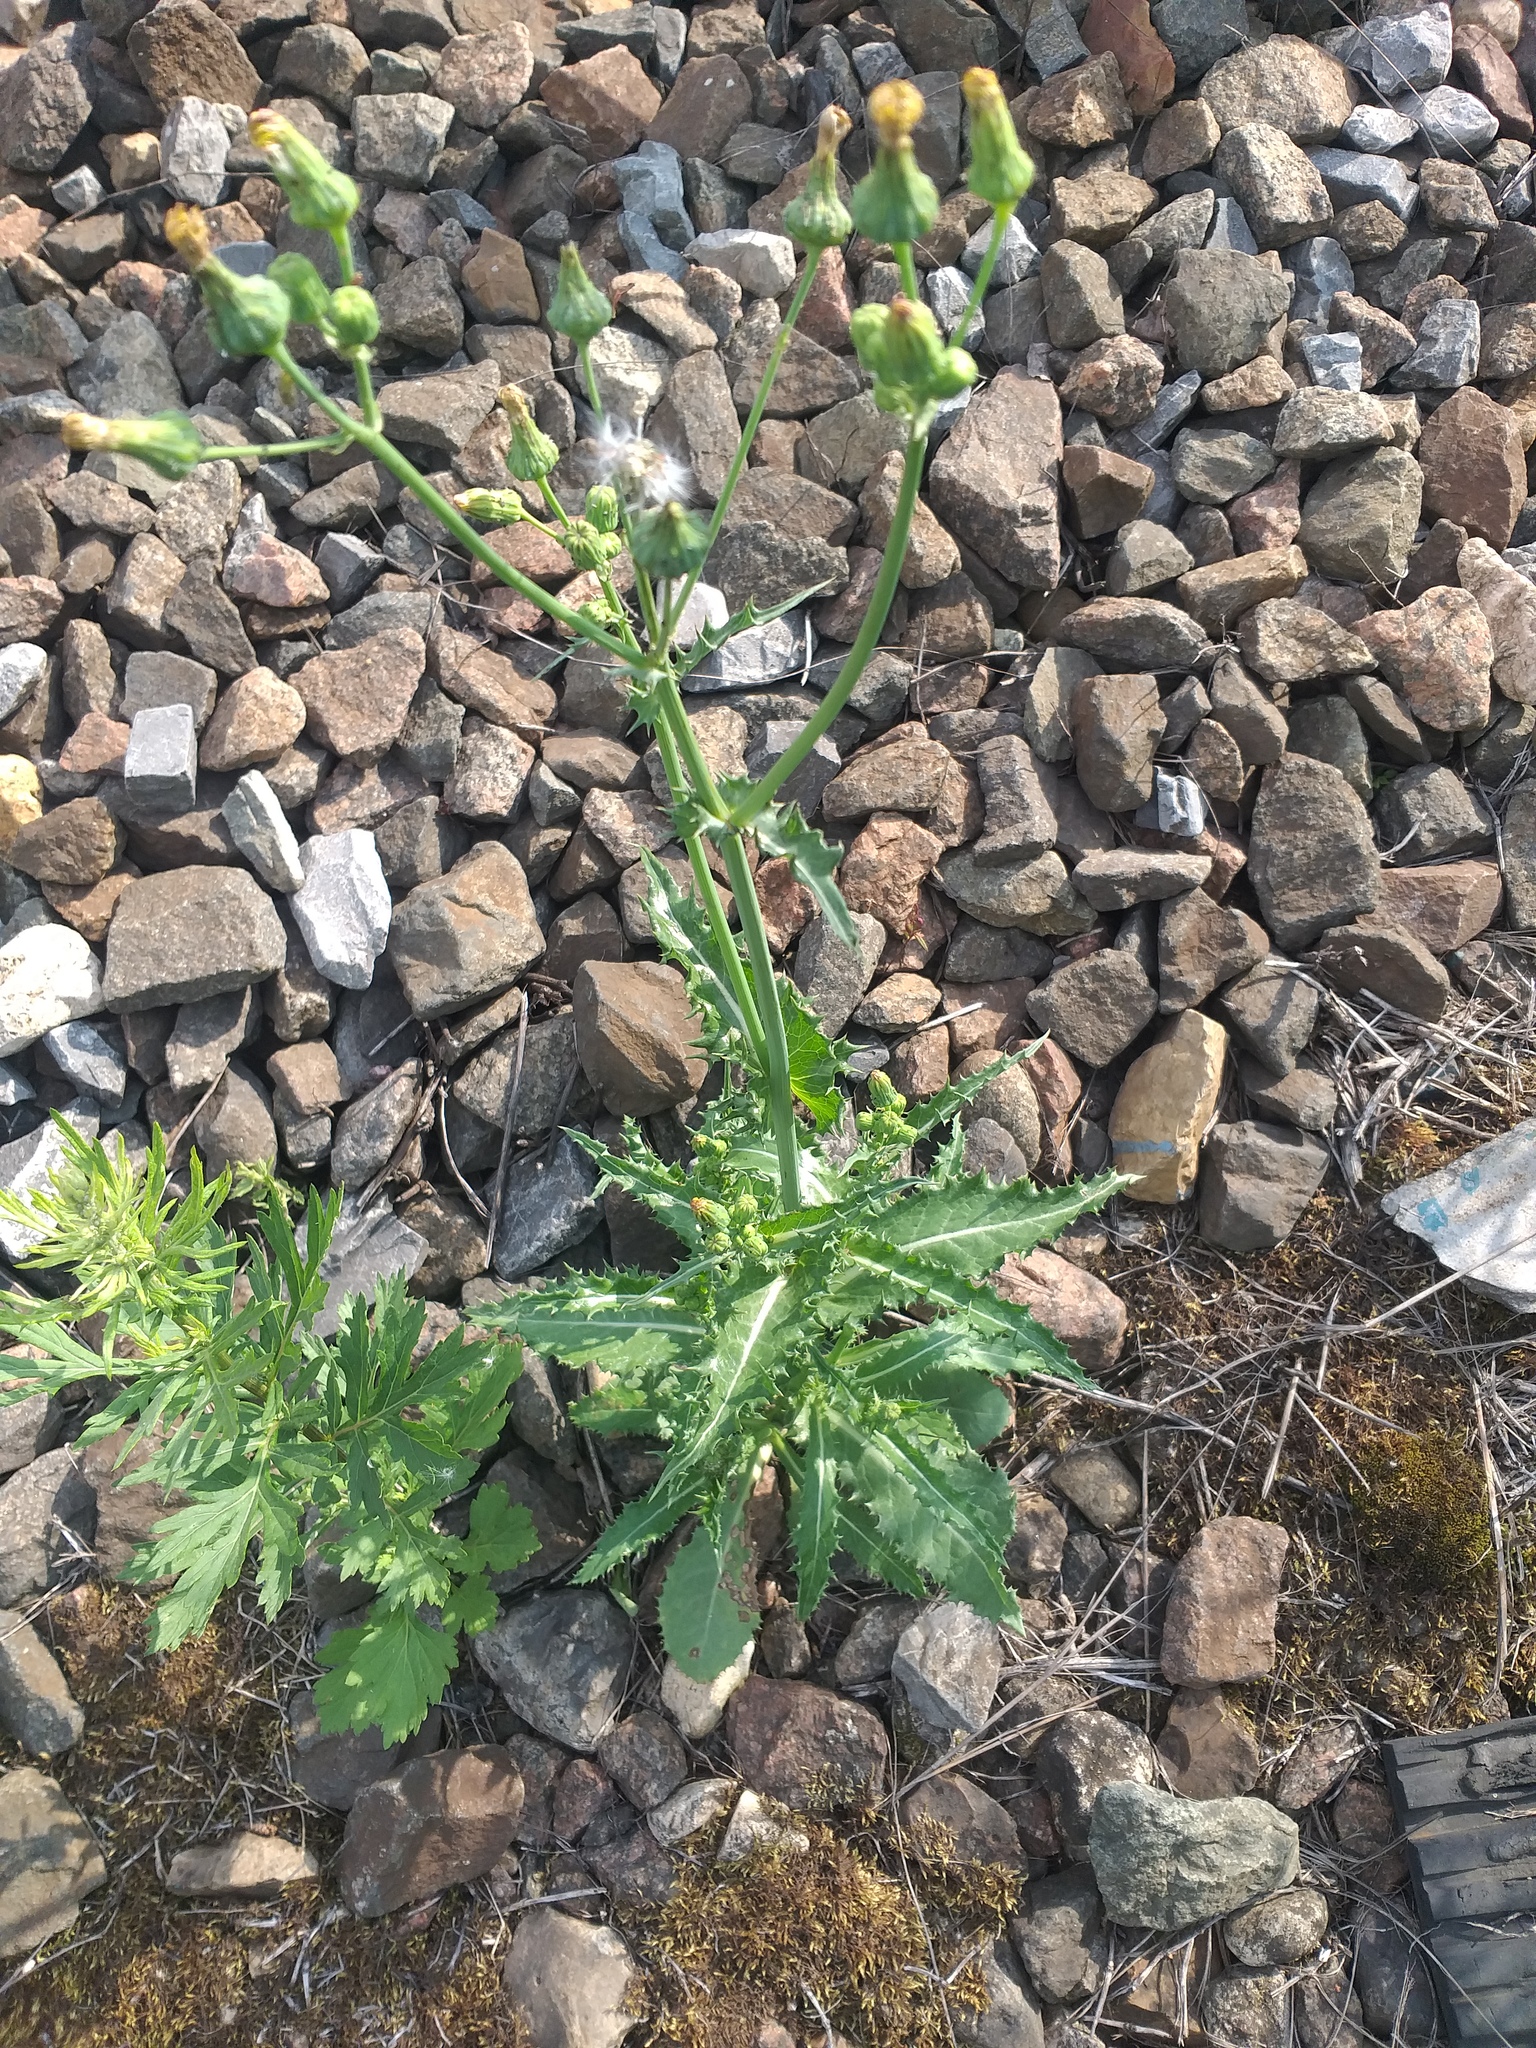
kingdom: Plantae
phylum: Tracheophyta
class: Magnoliopsida
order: Asterales
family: Asteraceae
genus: Sonchus
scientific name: Sonchus asper
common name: Prickly sow-thistle
